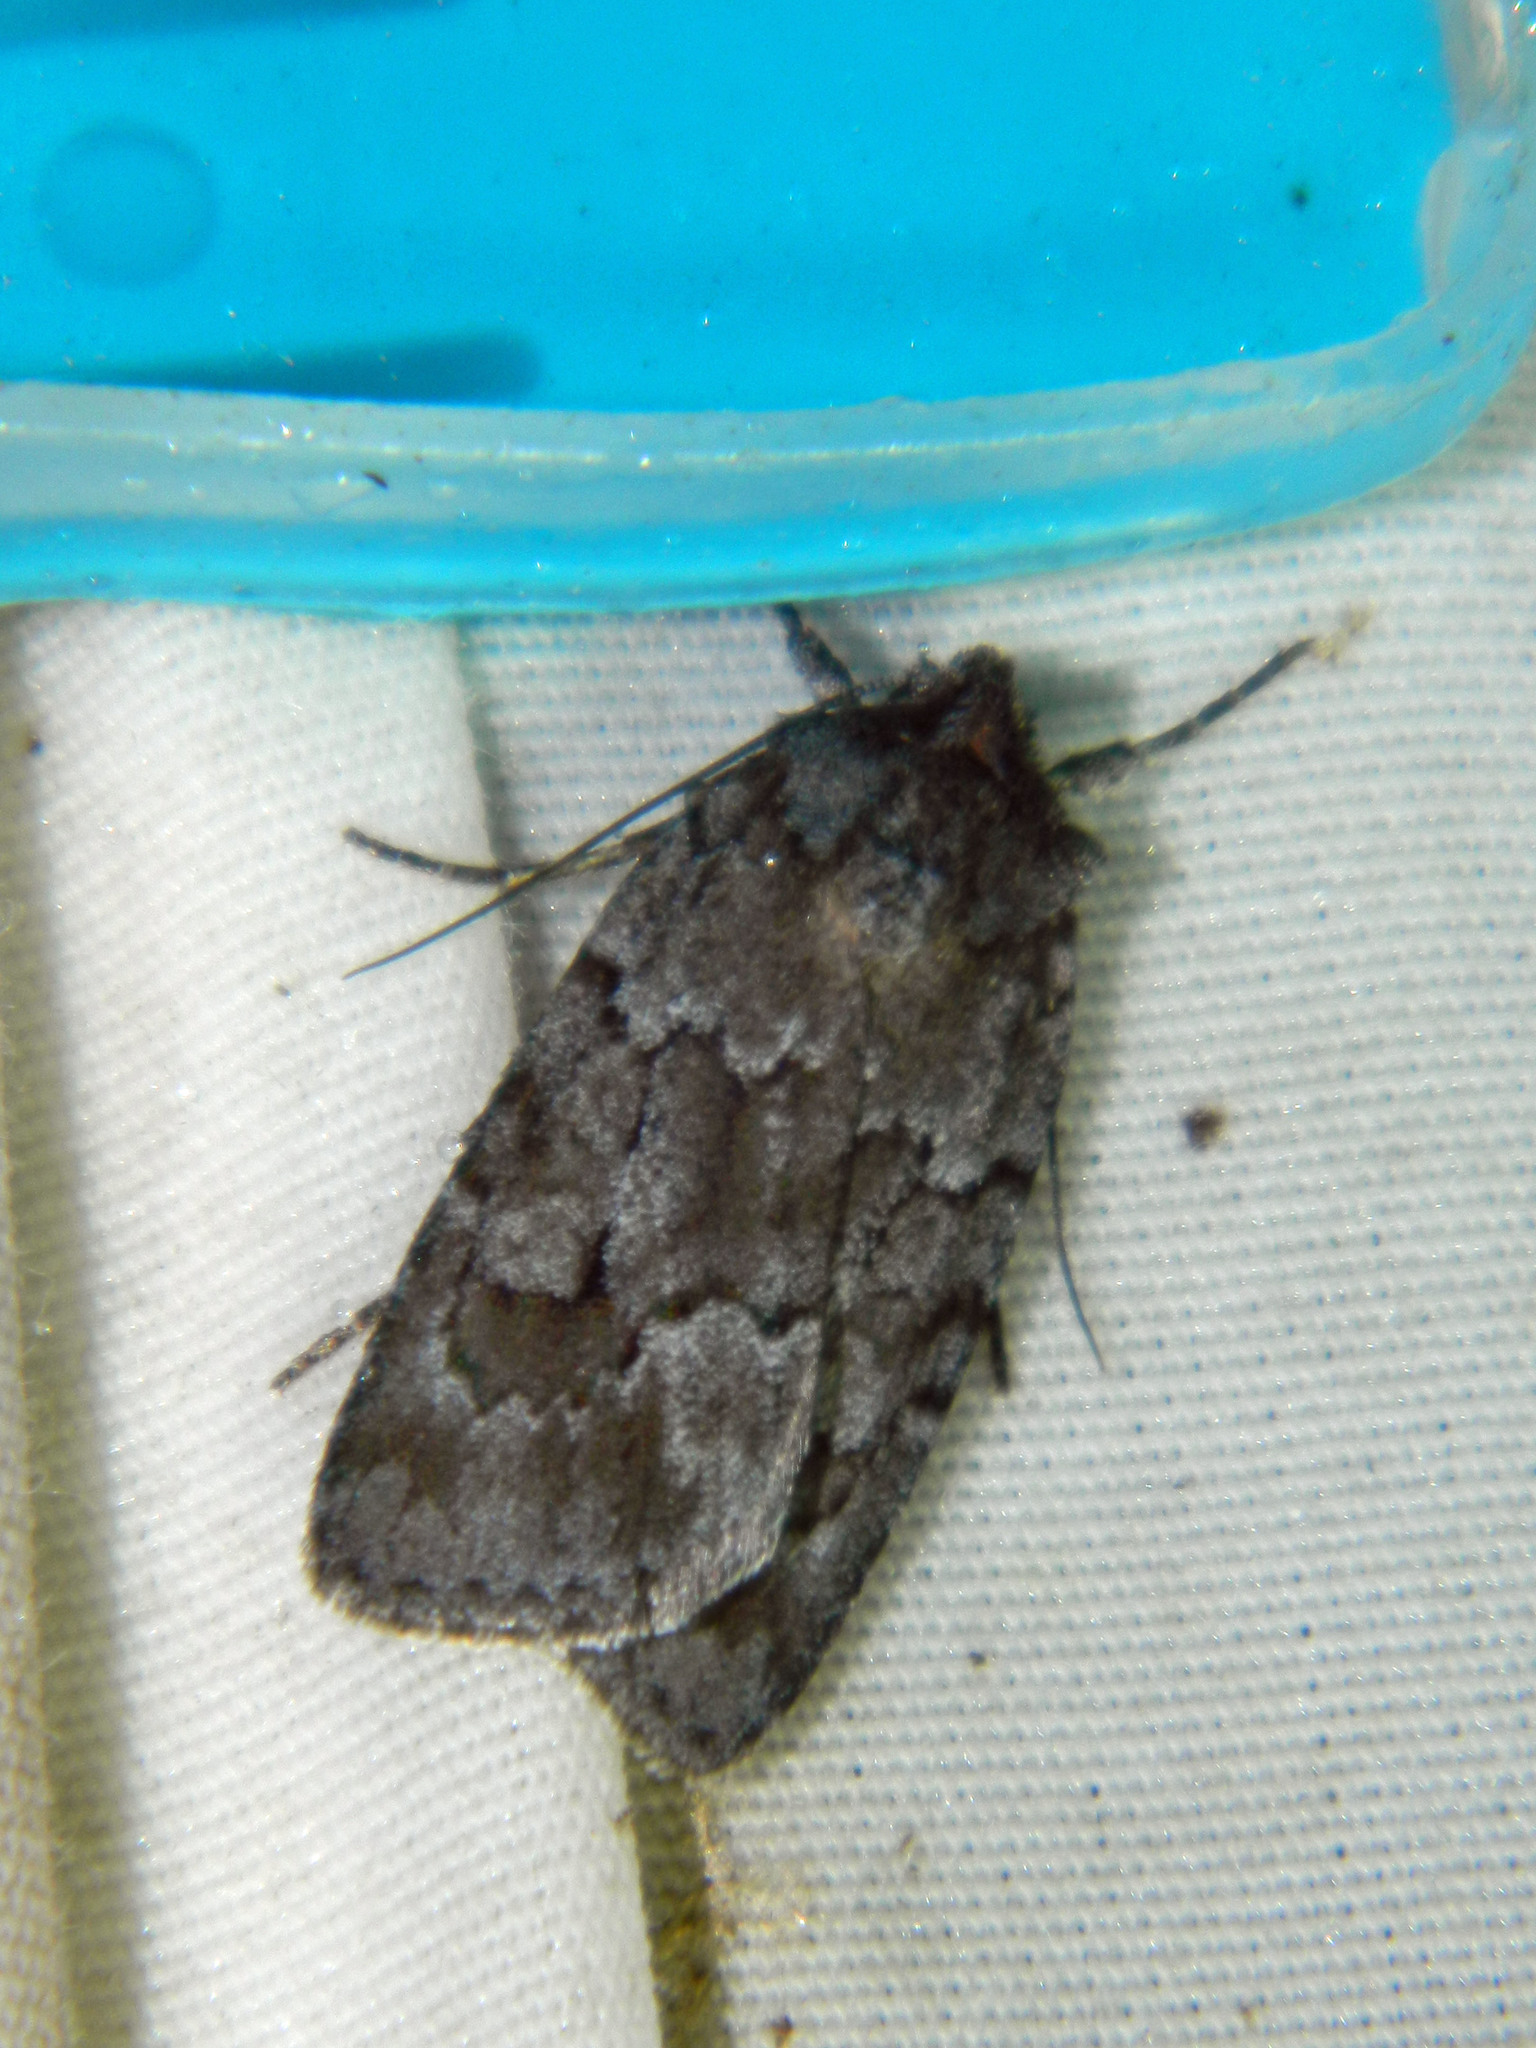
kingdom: Animalia
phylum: Arthropoda
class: Insecta
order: Lepidoptera
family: Noctuidae
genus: Sympistis
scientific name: Sympistis dentata
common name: Blueberry sallow
